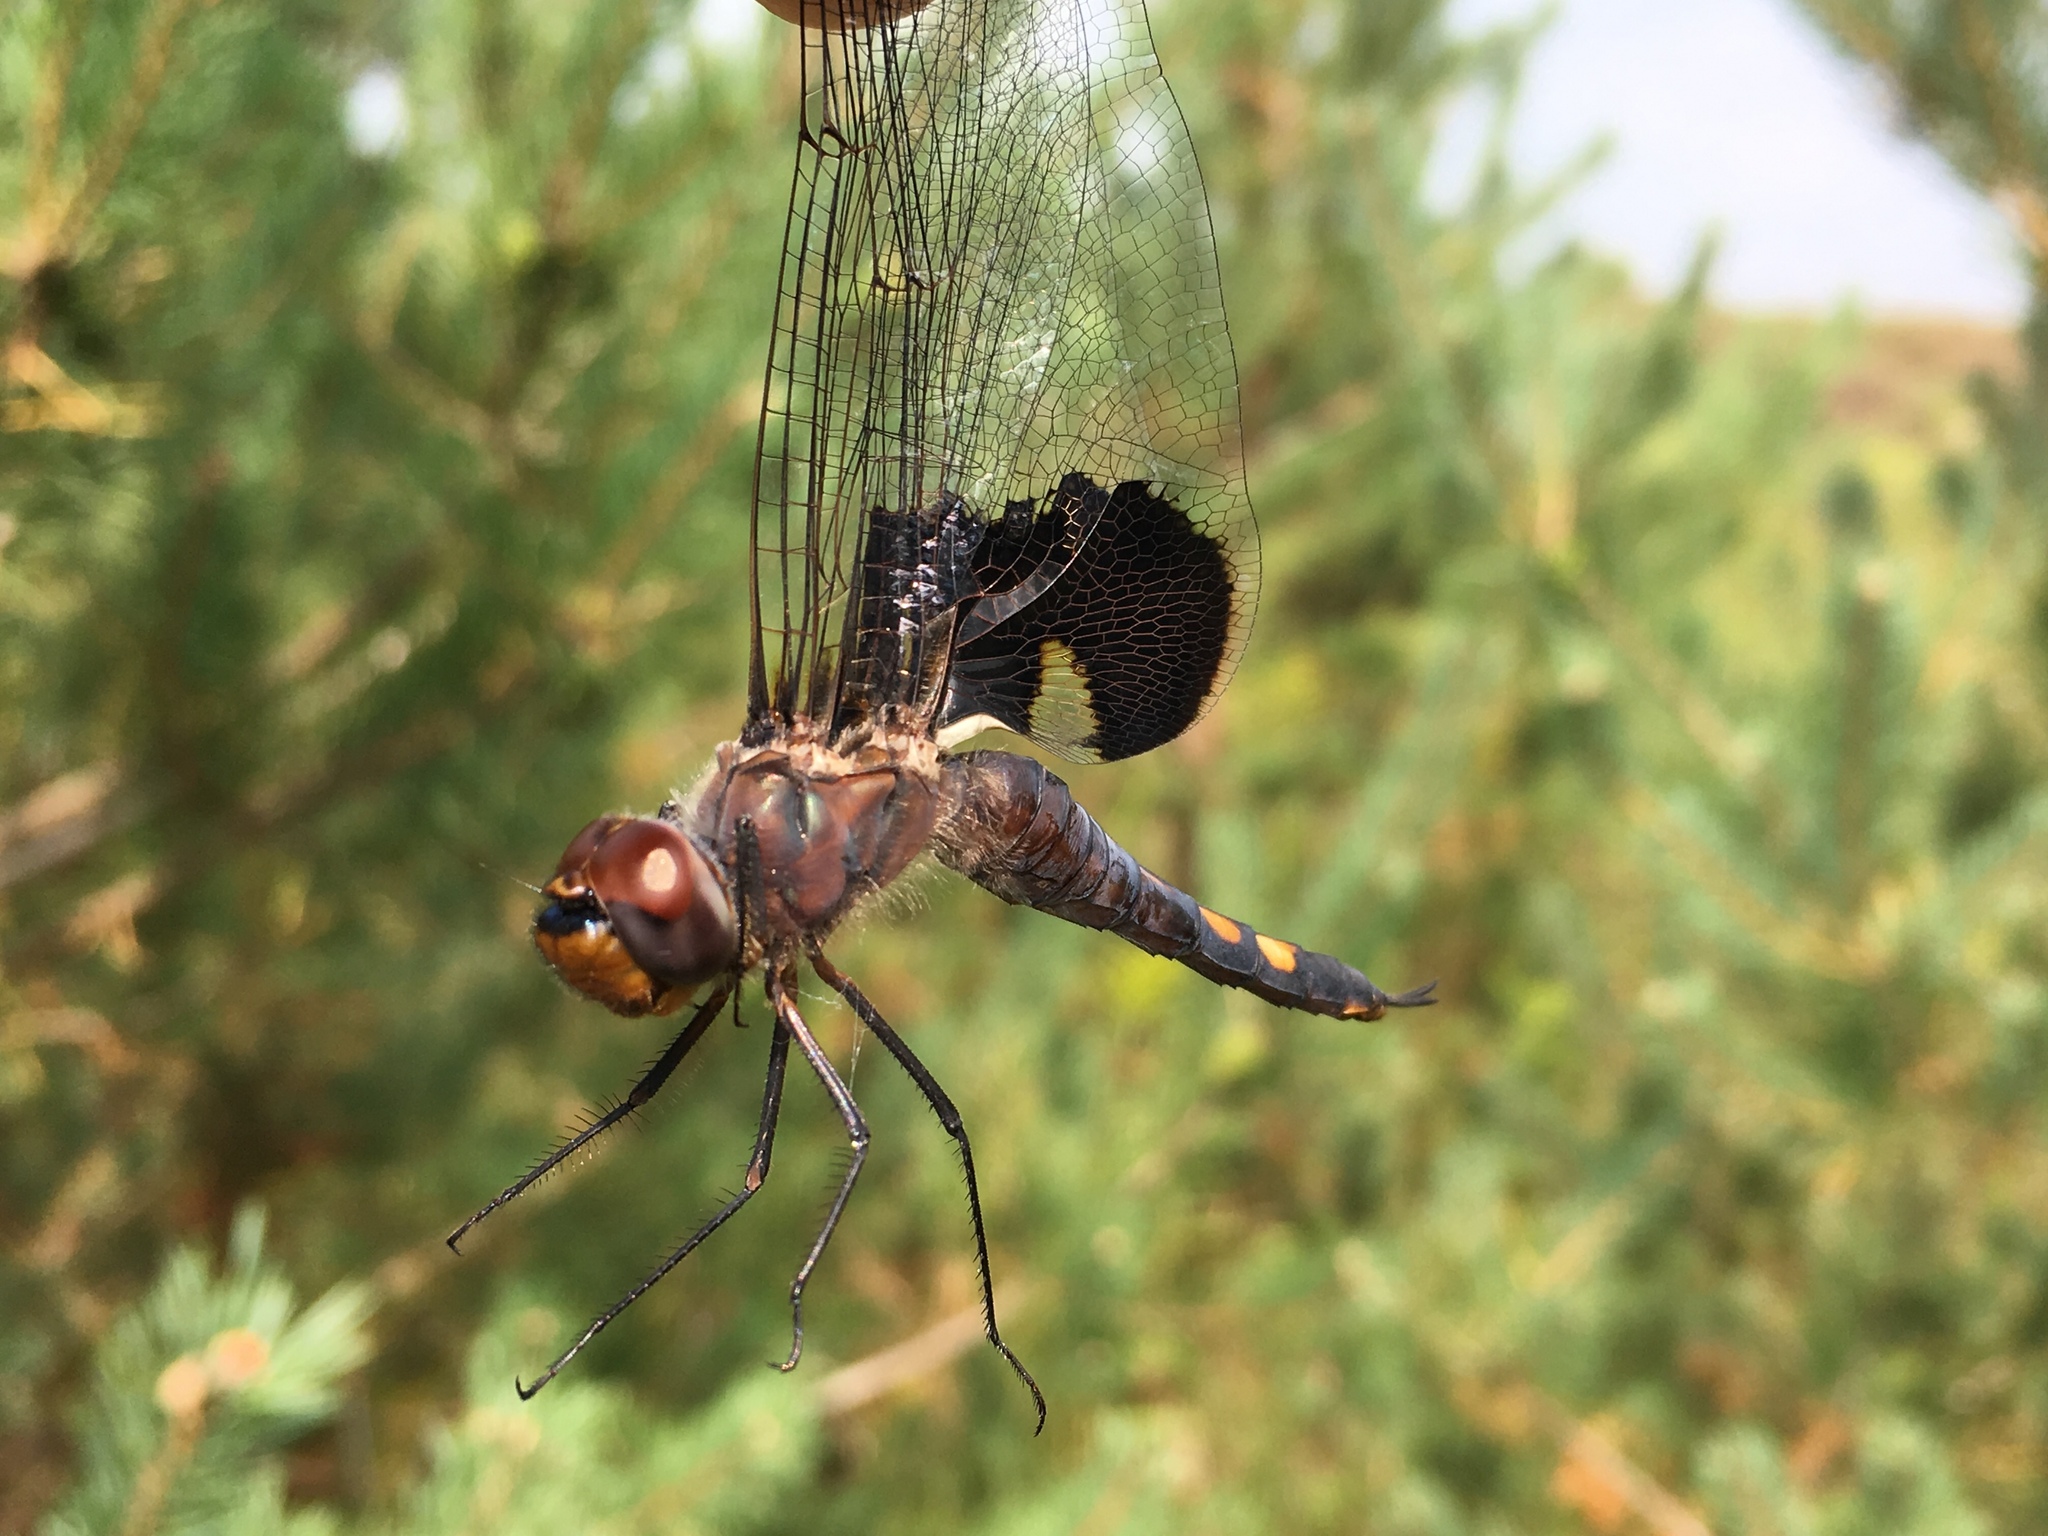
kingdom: Animalia
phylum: Arthropoda
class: Insecta
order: Odonata
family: Libellulidae
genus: Tramea
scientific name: Tramea lacerata
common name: Black saddlebags
